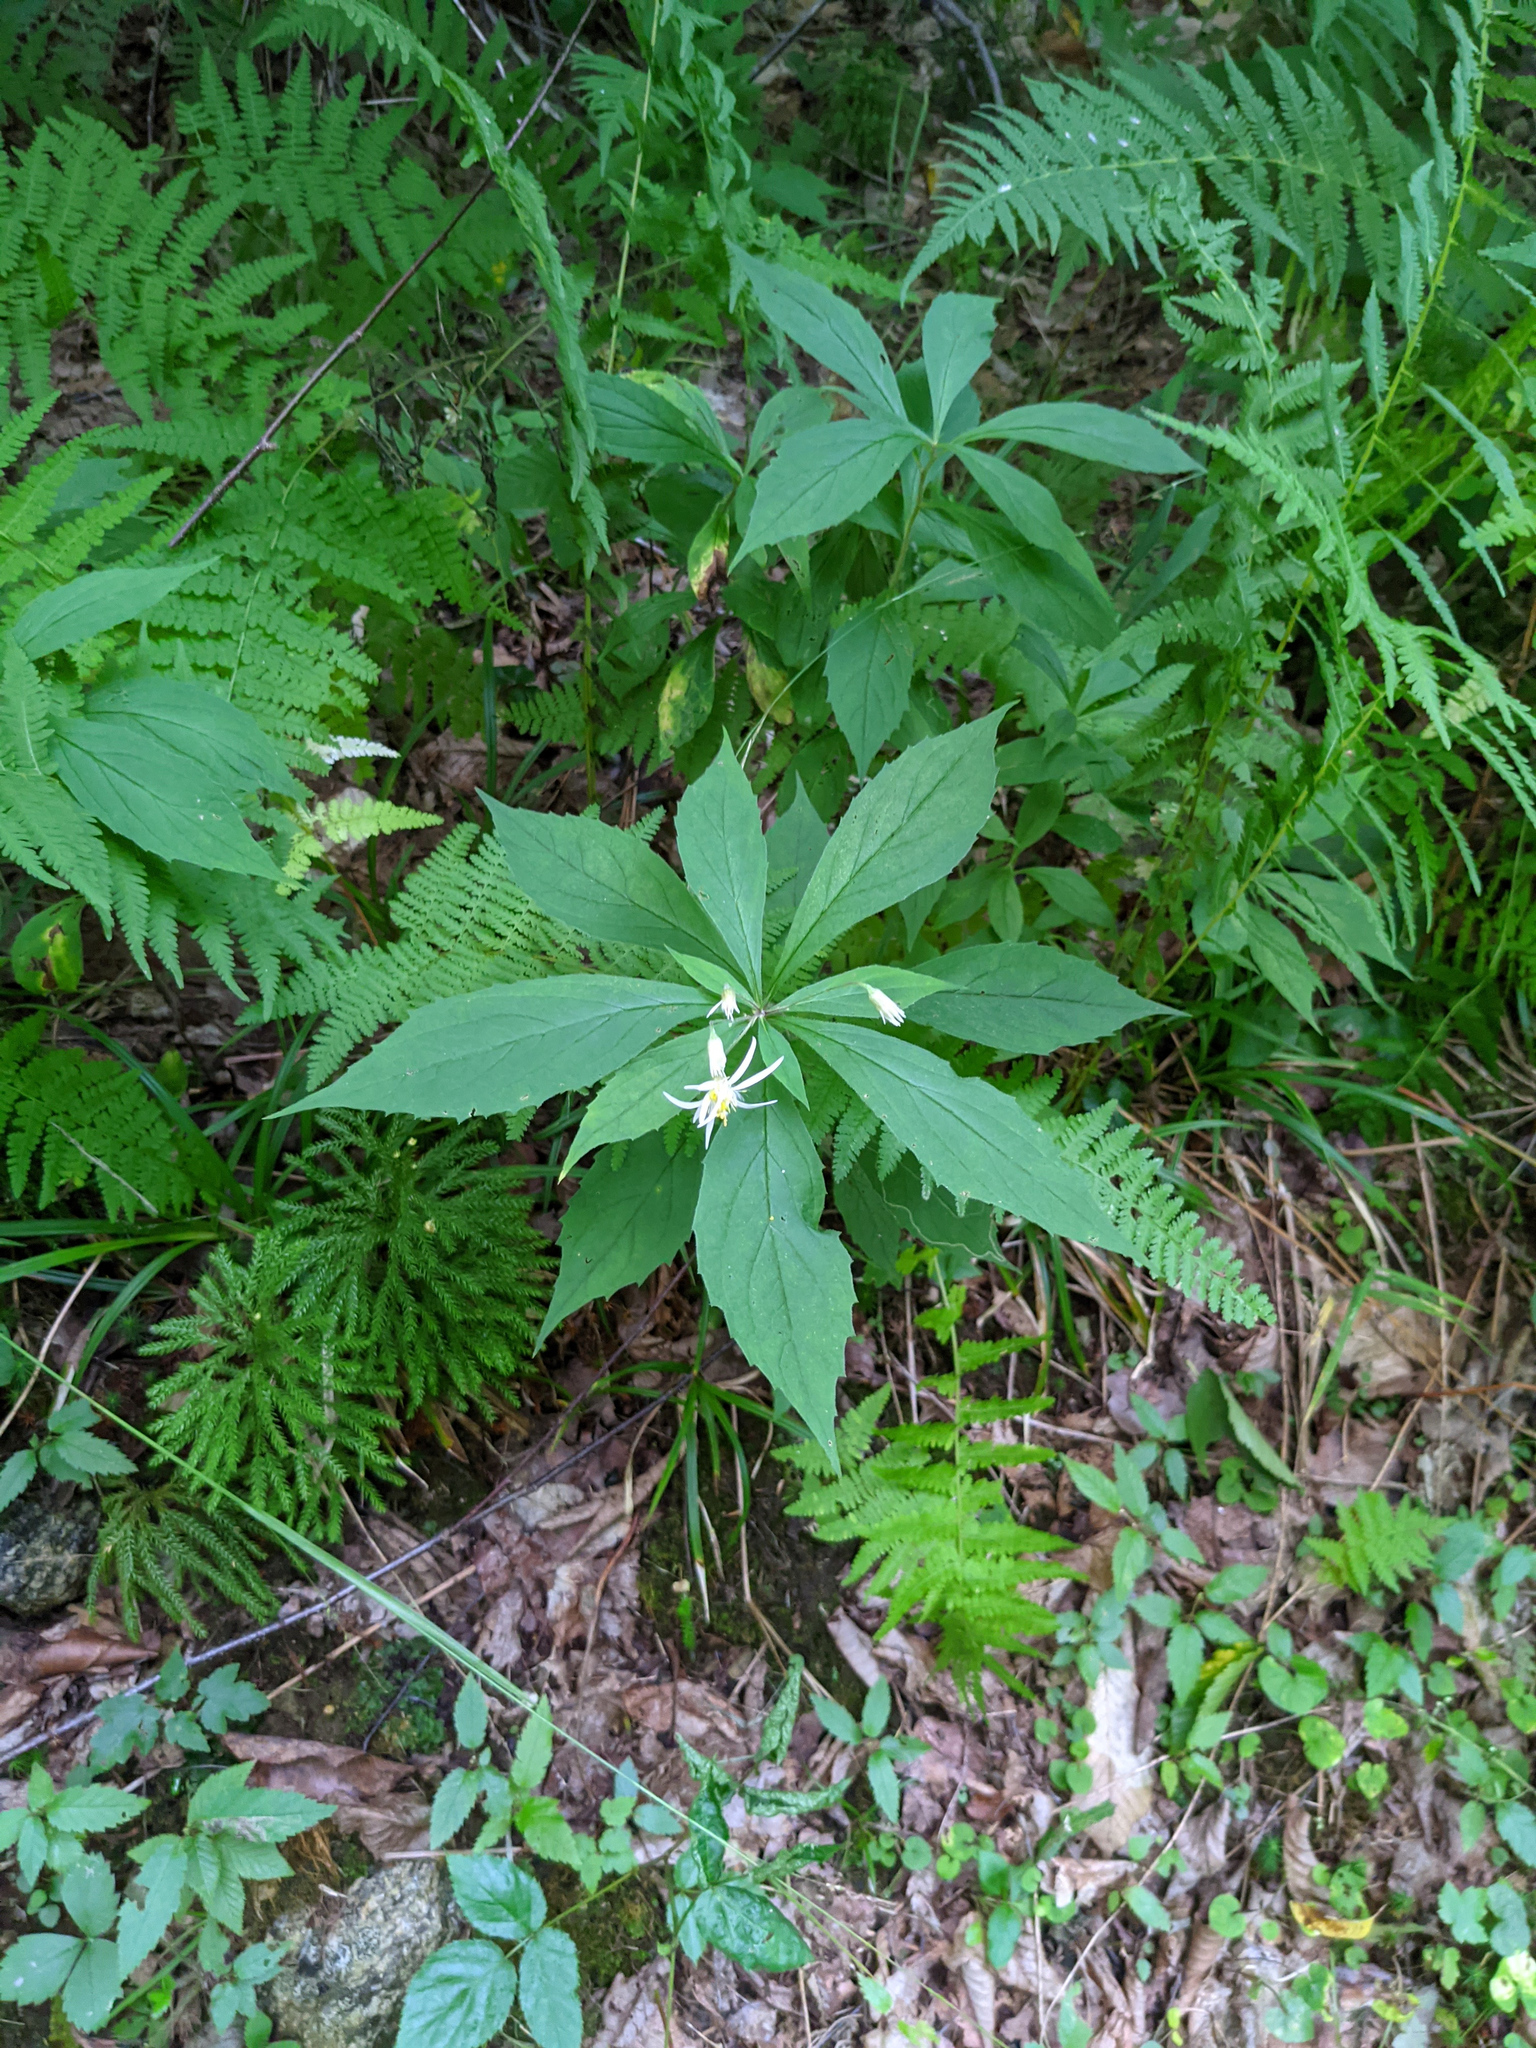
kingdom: Plantae
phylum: Tracheophyta
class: Magnoliopsida
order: Asterales
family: Asteraceae
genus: Oclemena
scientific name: Oclemena acuminata
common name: Mountain aster
